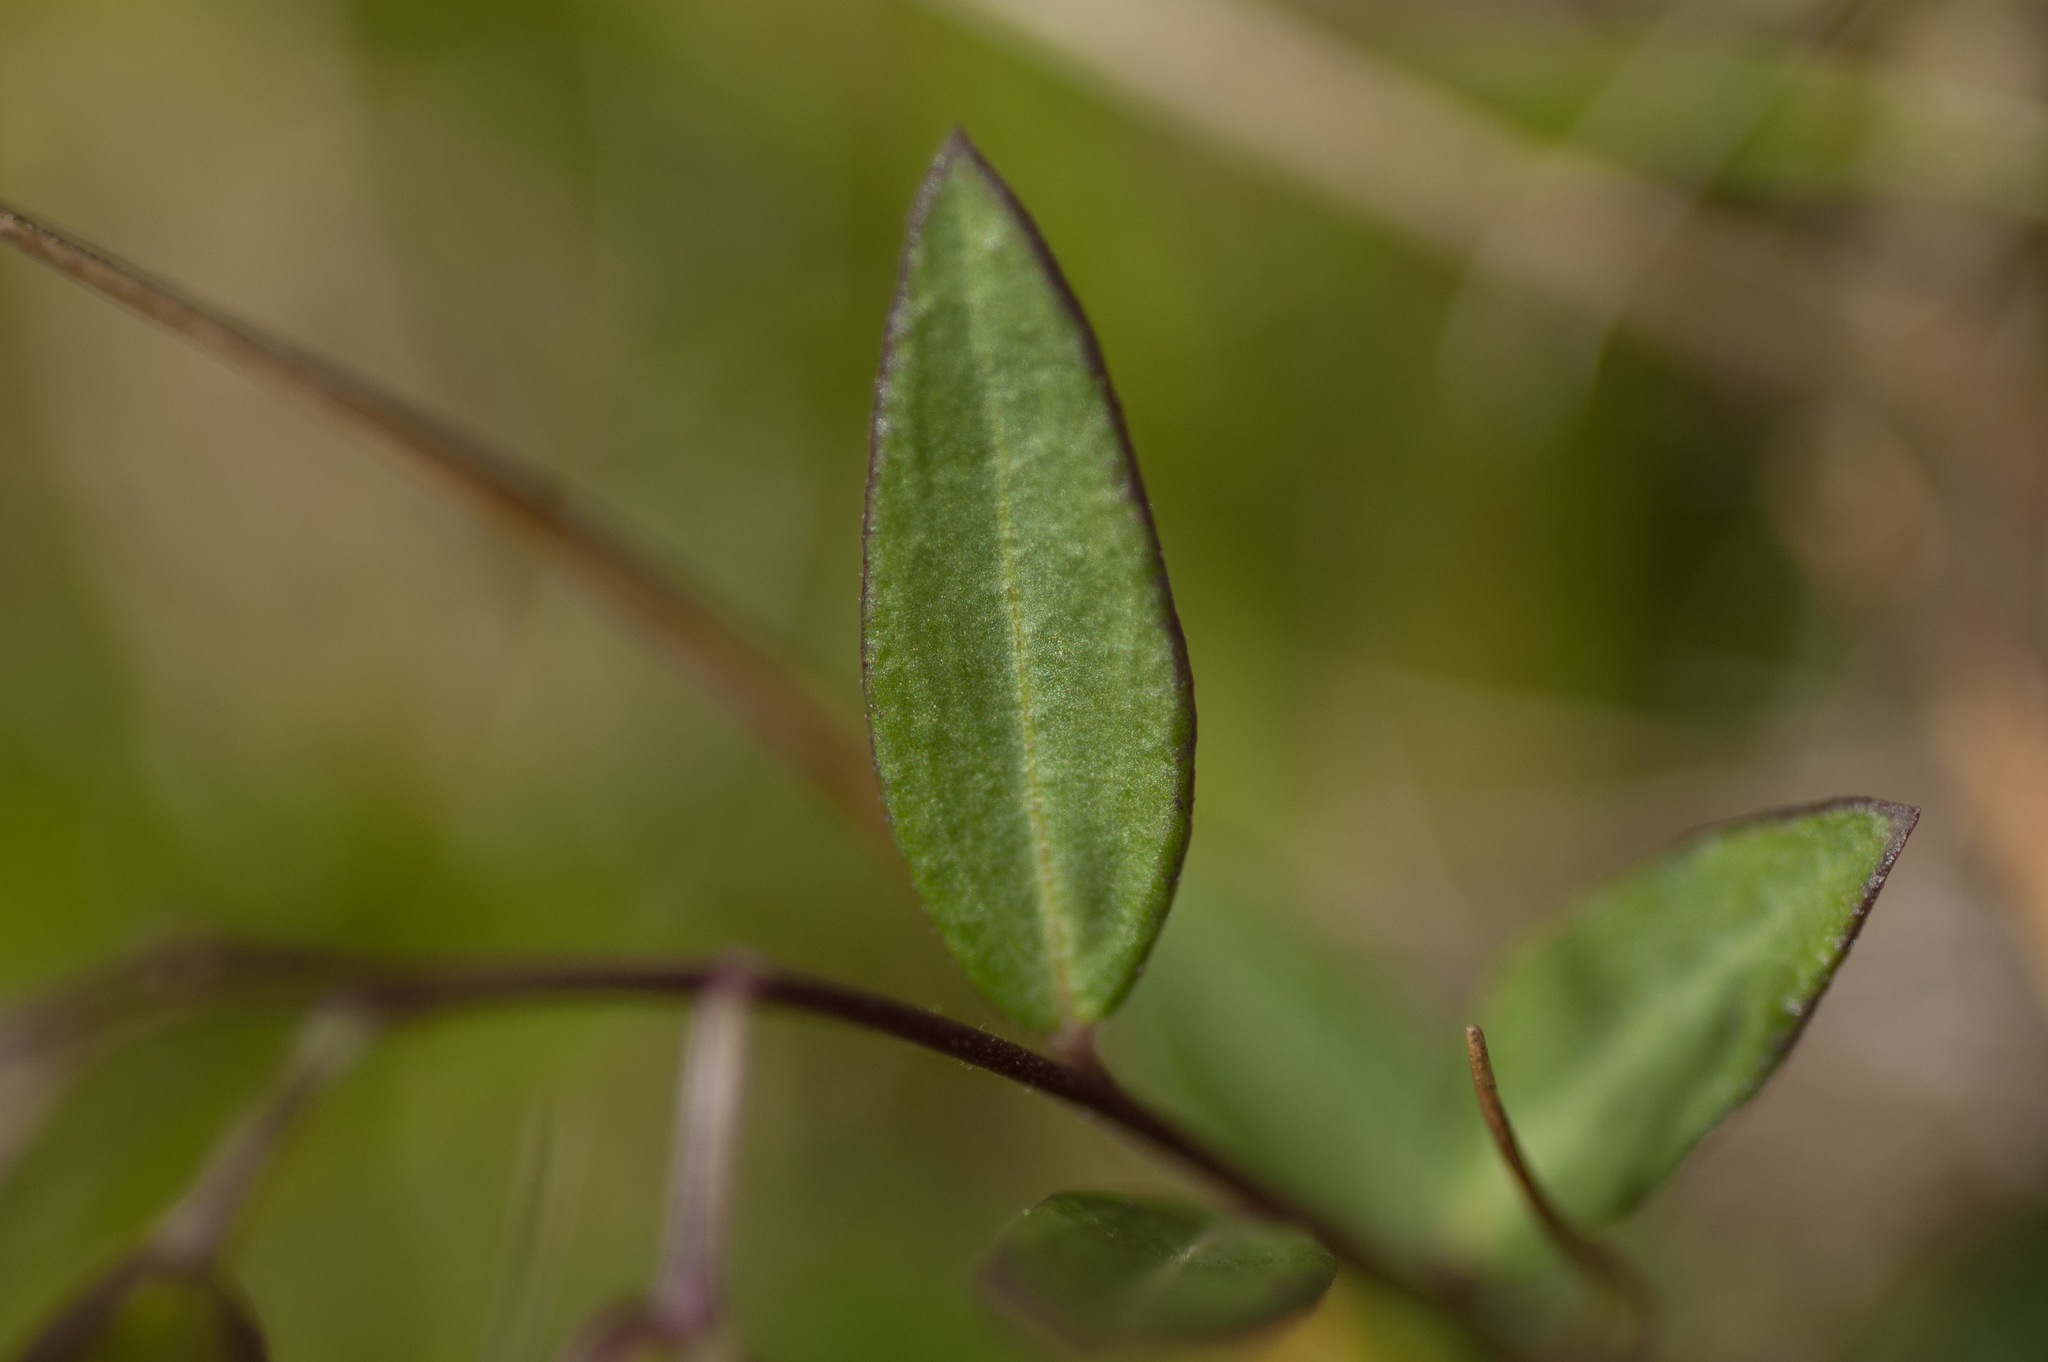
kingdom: Plantae
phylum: Tracheophyta
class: Magnoliopsida
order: Fabales
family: Polygalaceae
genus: Polygala
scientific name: Polygala japonica
